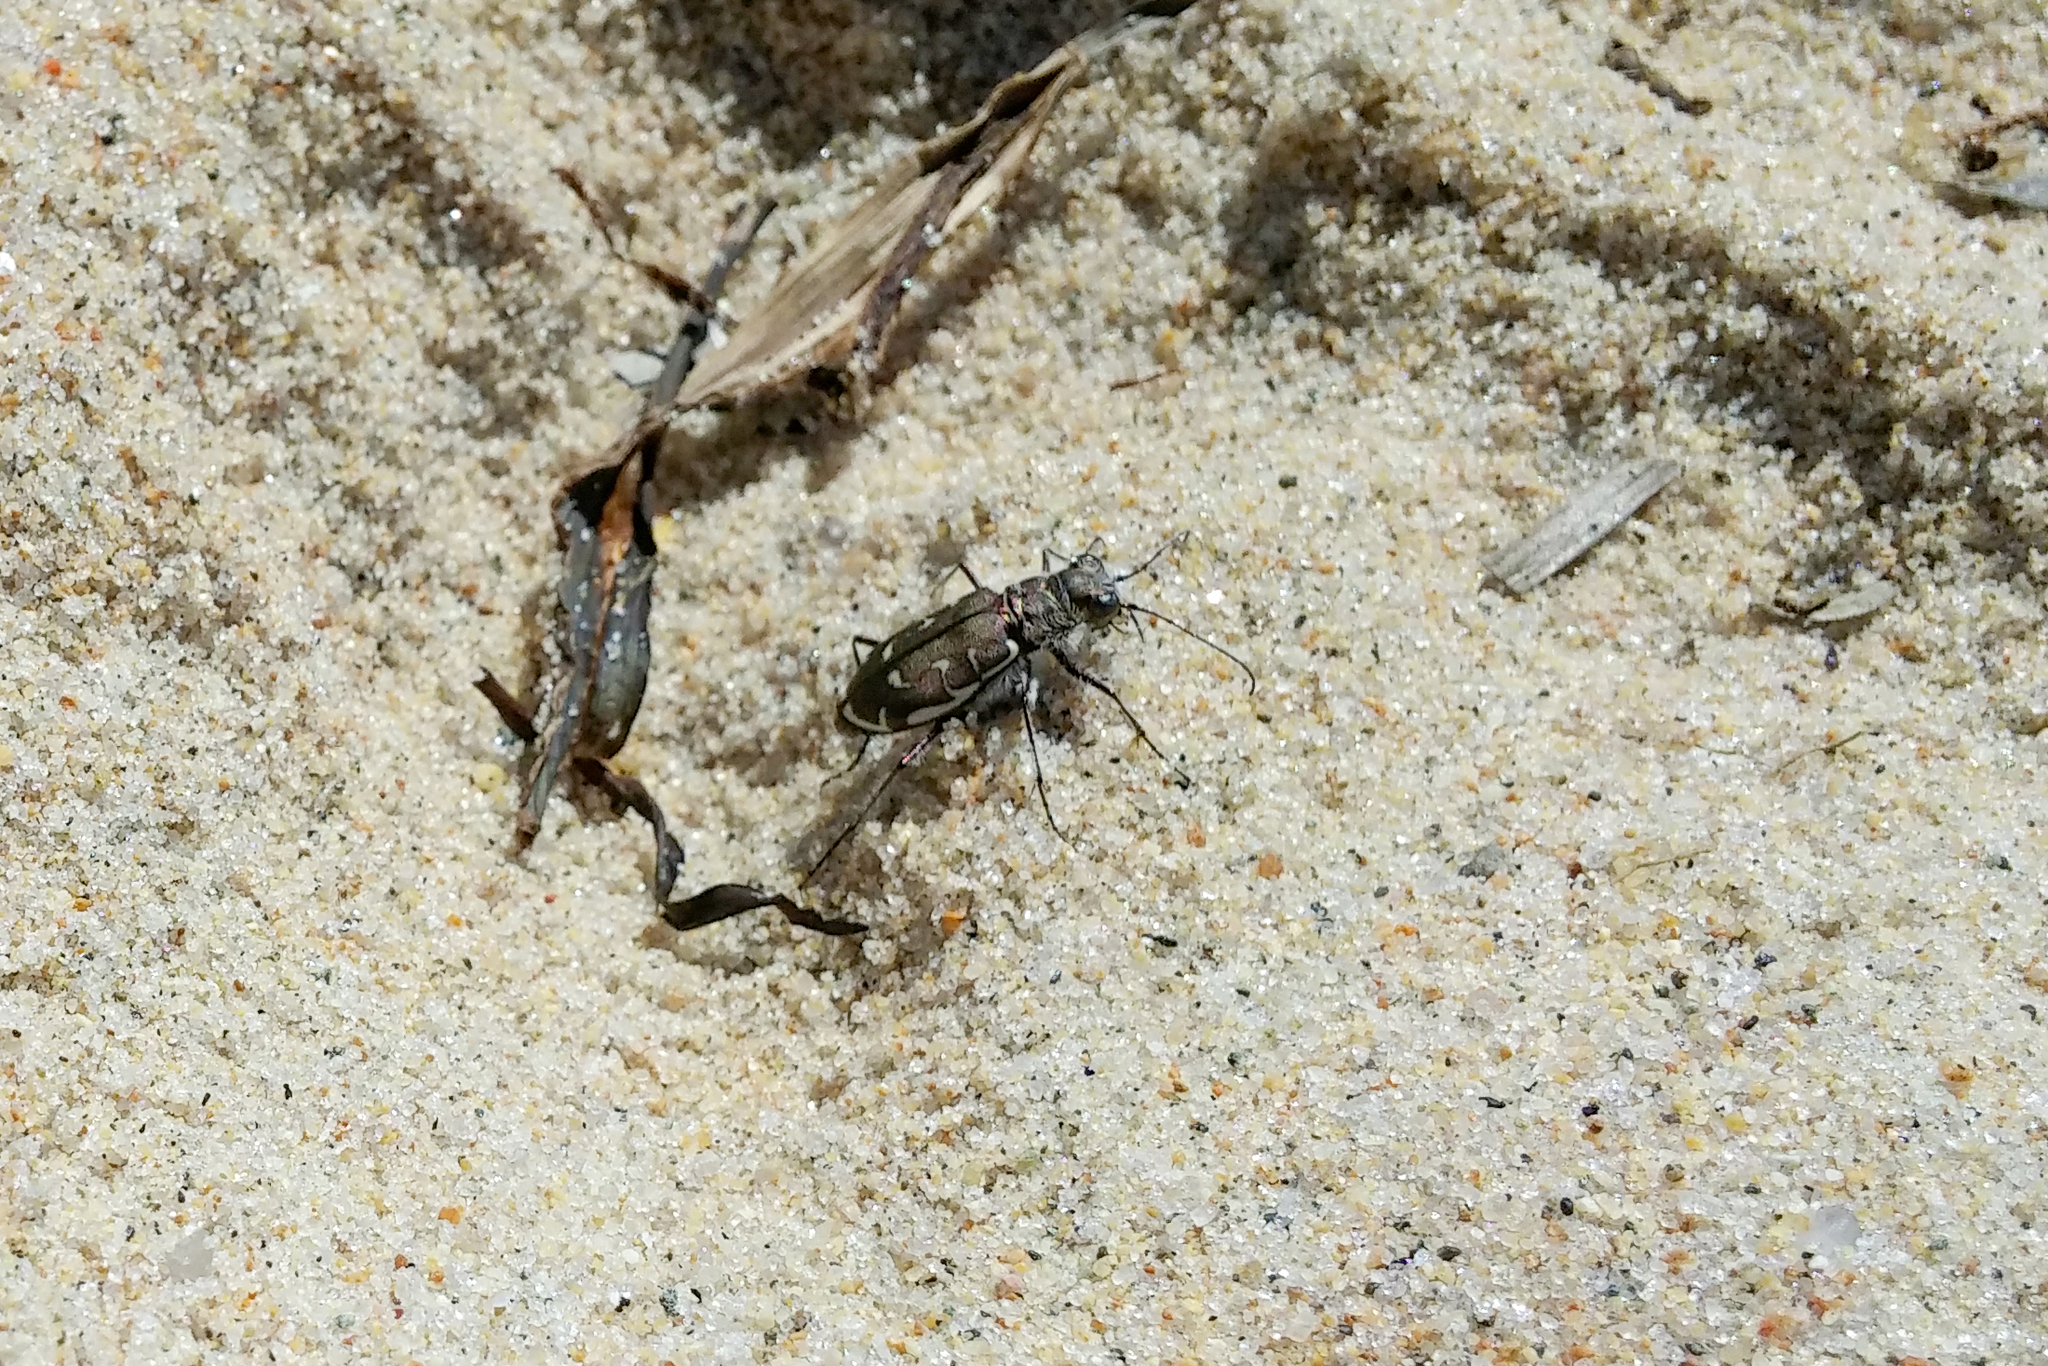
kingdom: Animalia
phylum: Arthropoda
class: Insecta
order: Coleoptera
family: Carabidae
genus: Cicindela
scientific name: Cicindela hirticollis
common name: Hairy-necked tiger beetle
